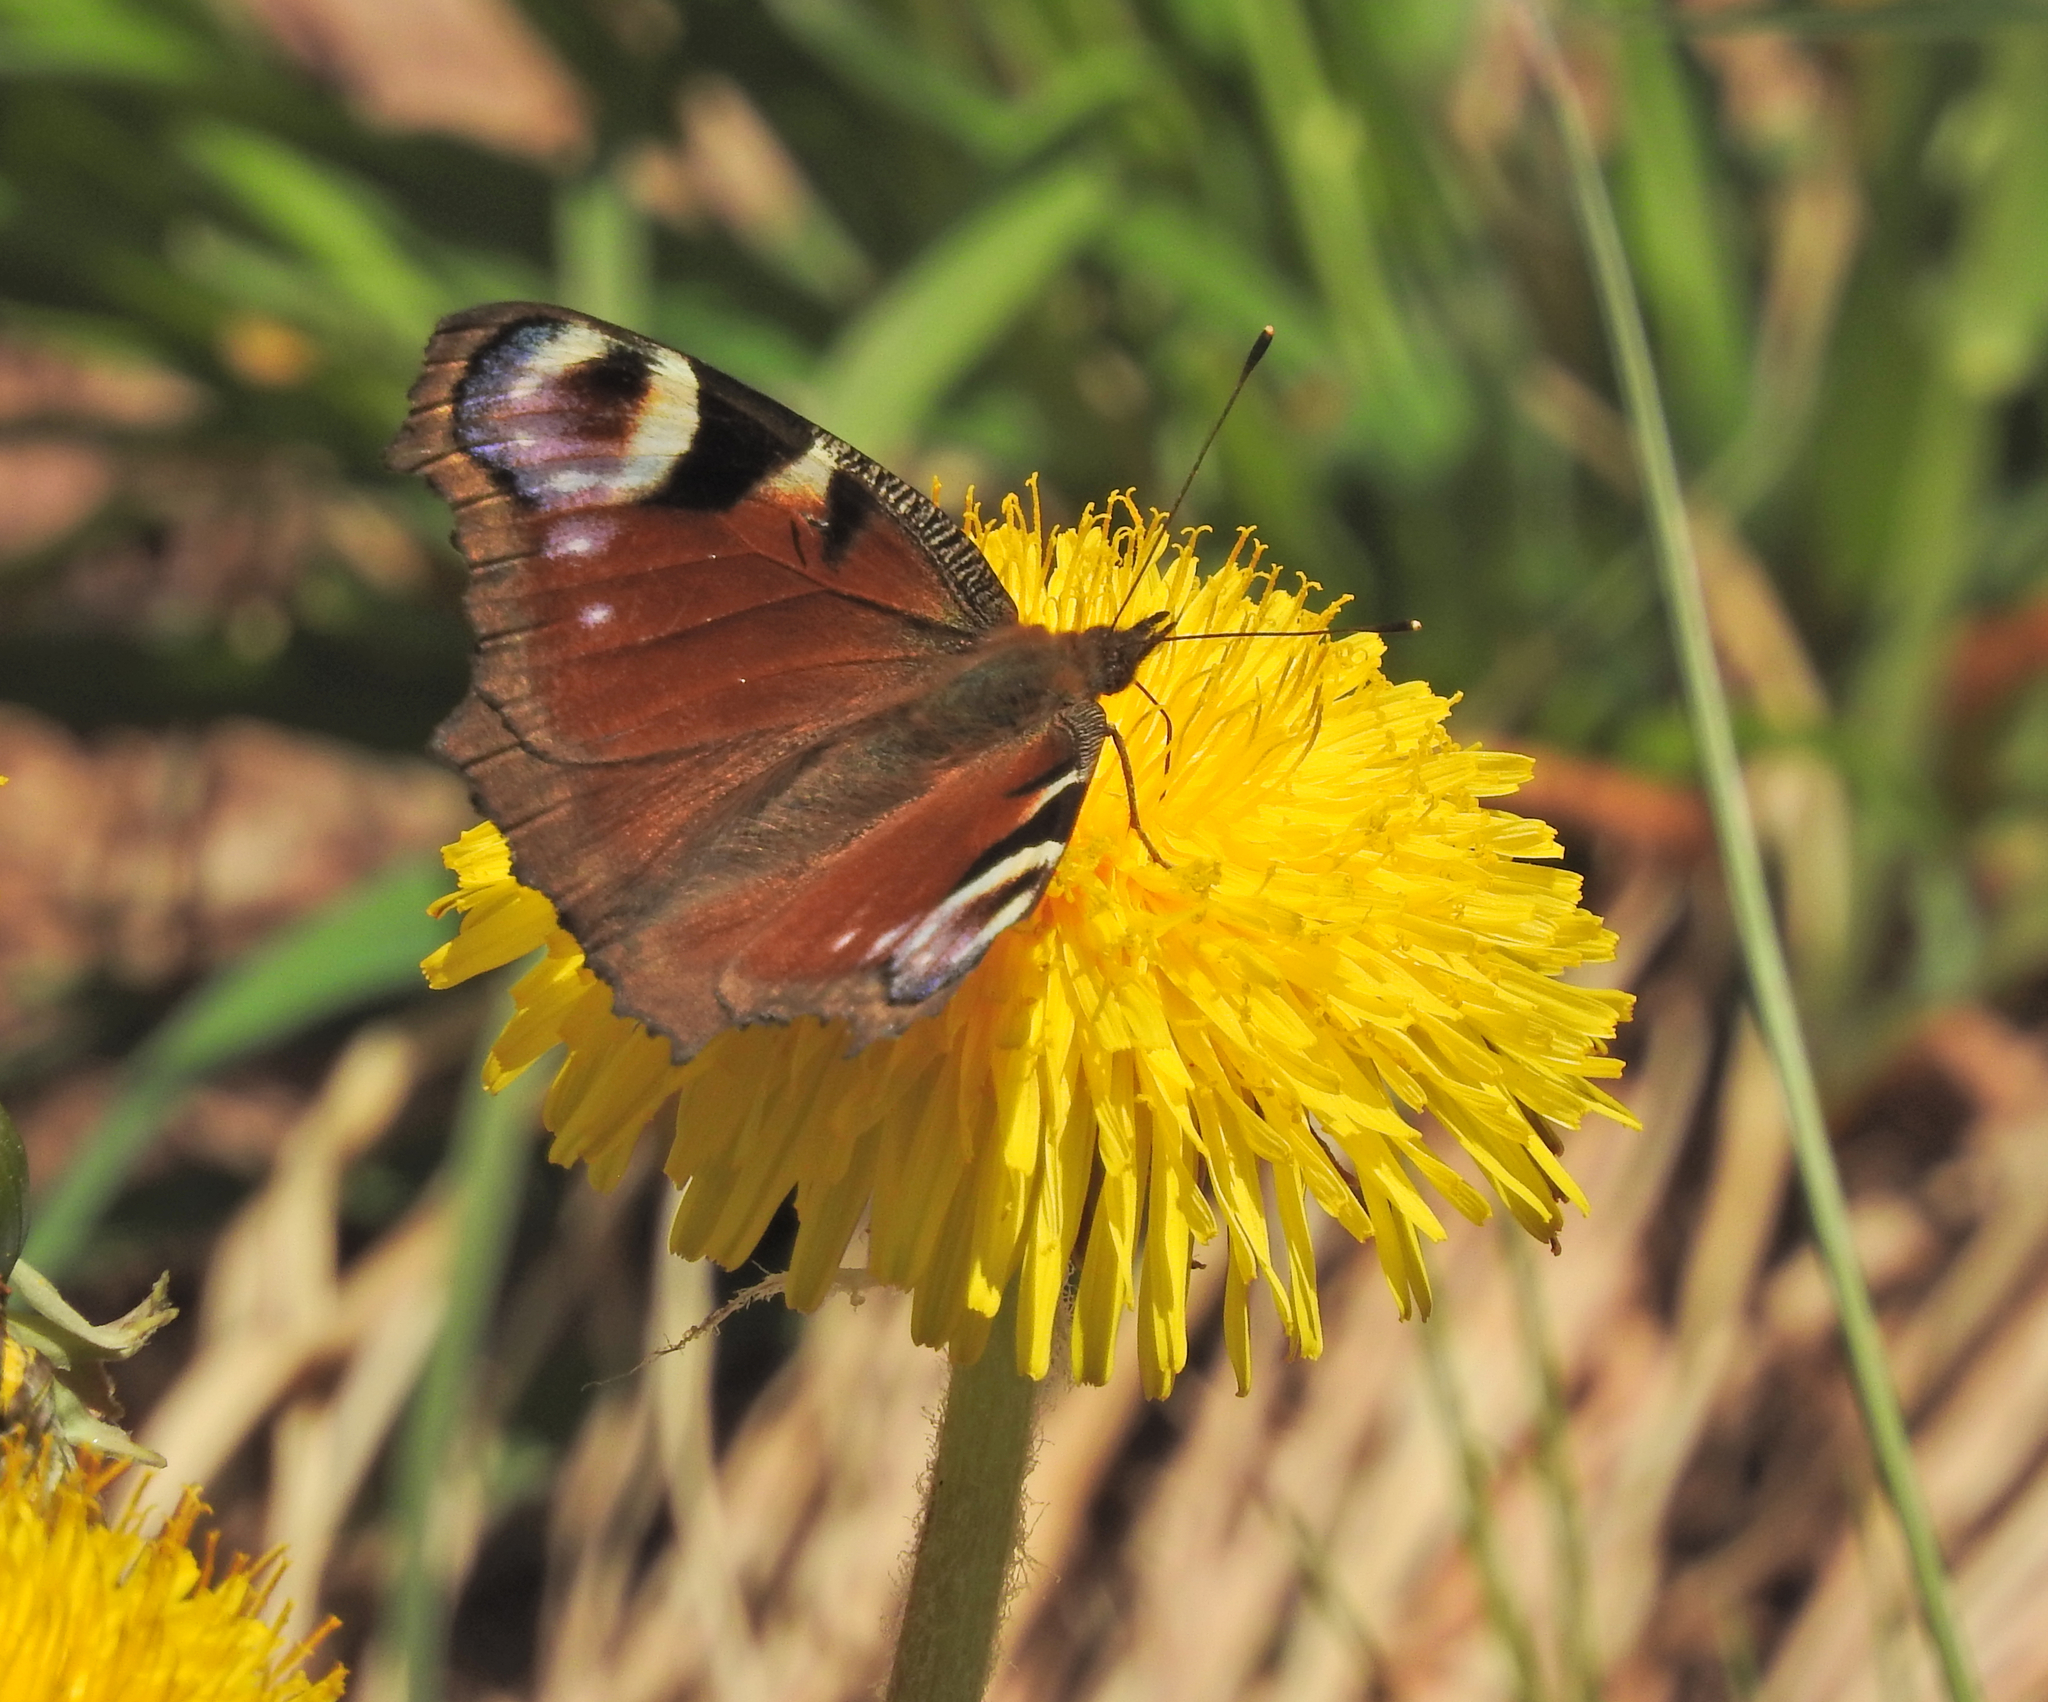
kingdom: Animalia
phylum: Arthropoda
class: Insecta
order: Lepidoptera
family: Nymphalidae
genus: Aglais
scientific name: Aglais io
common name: Peacock
